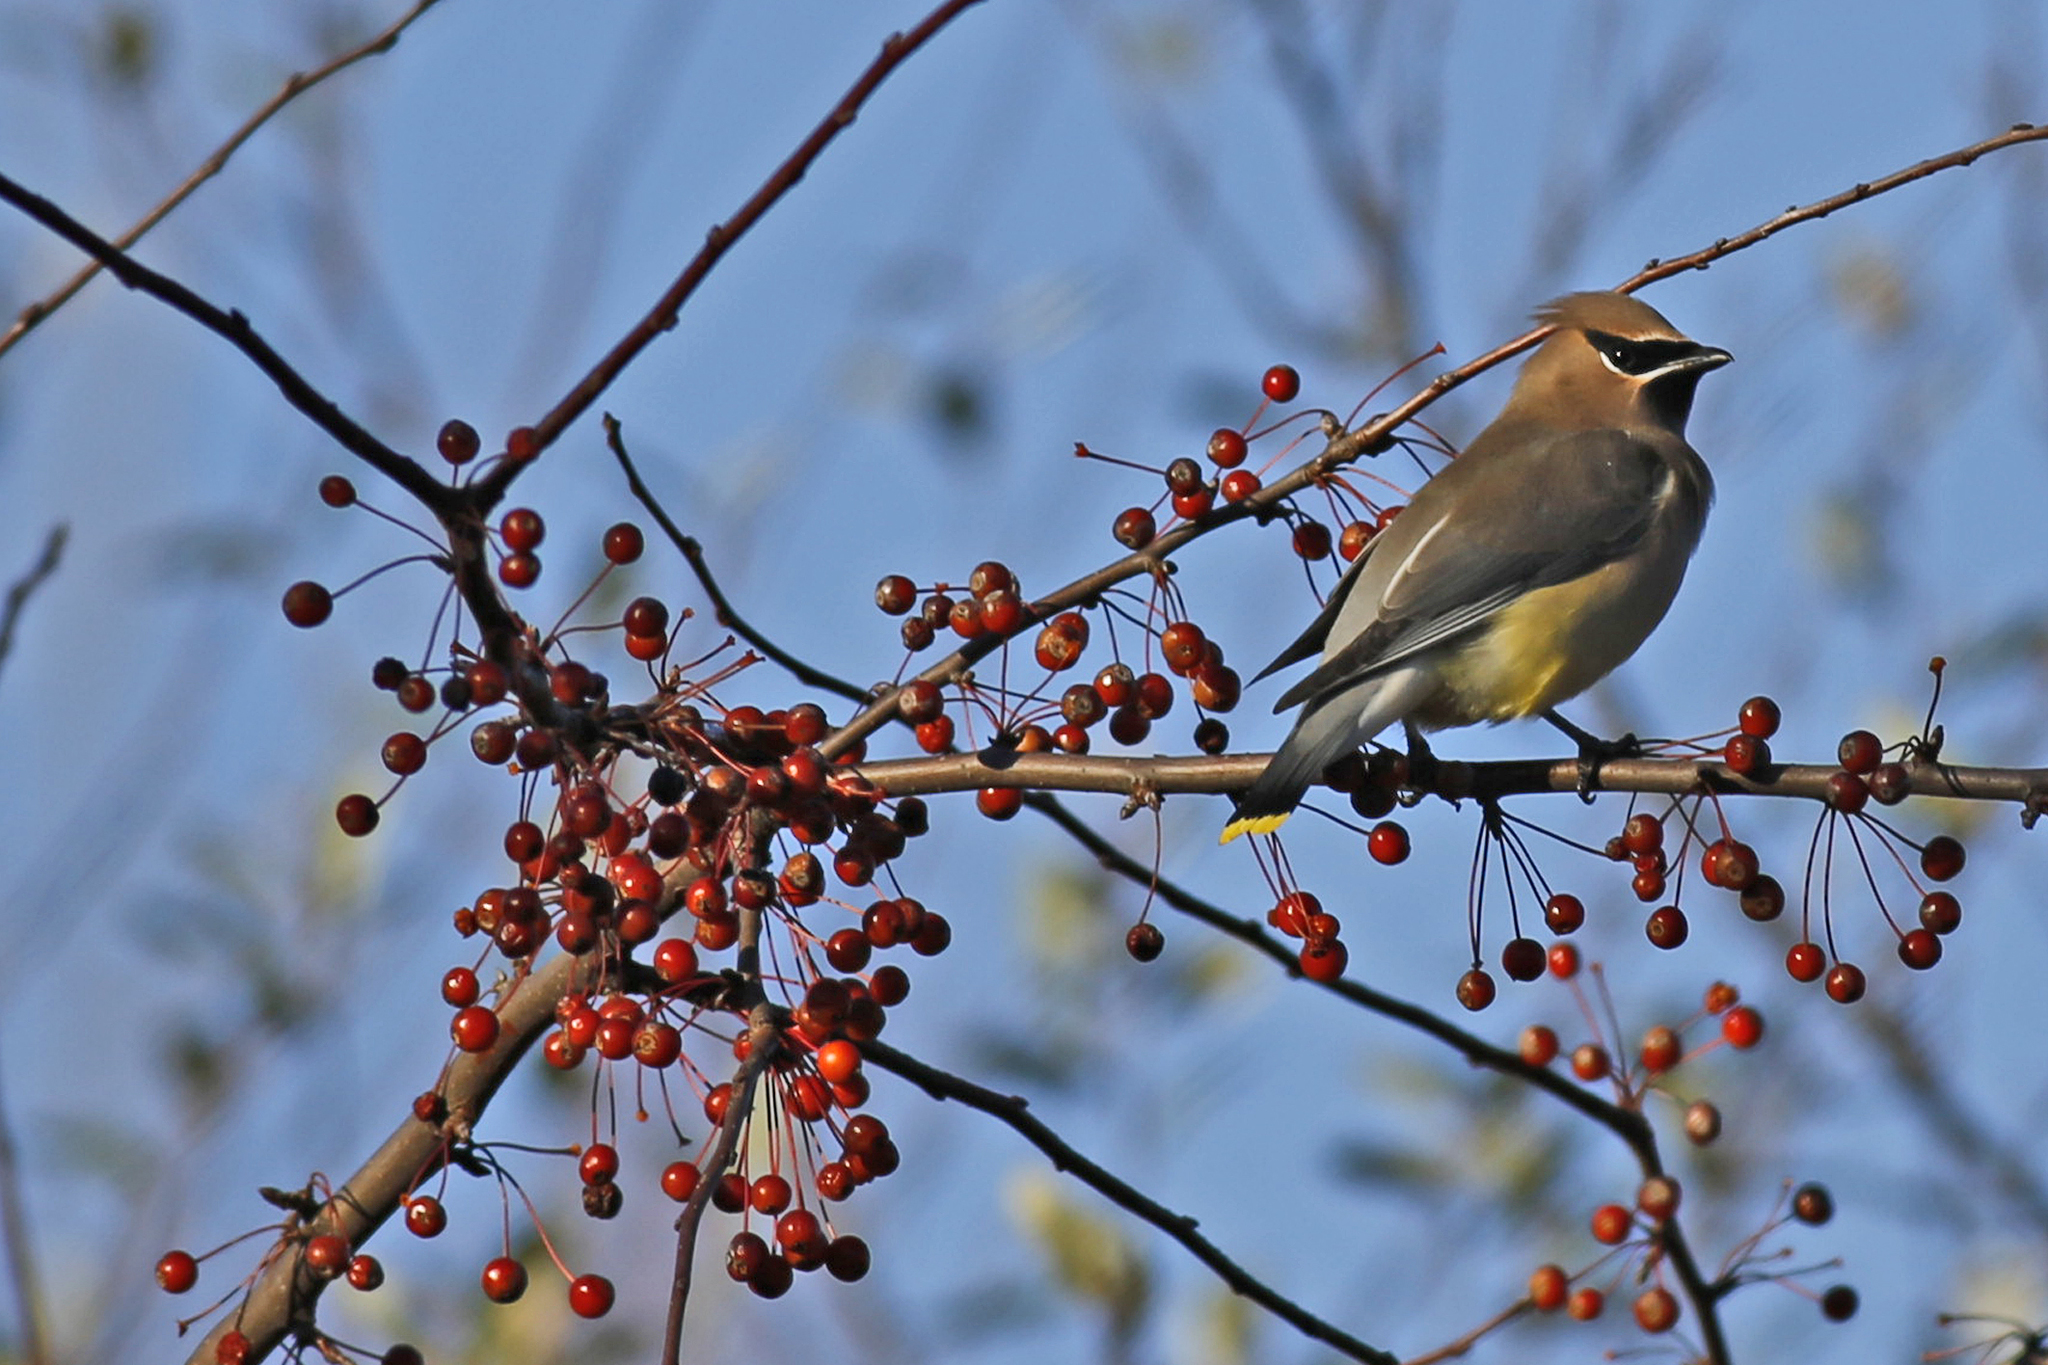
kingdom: Animalia
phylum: Chordata
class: Aves
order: Passeriformes
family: Bombycillidae
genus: Bombycilla
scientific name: Bombycilla cedrorum
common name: Cedar waxwing
